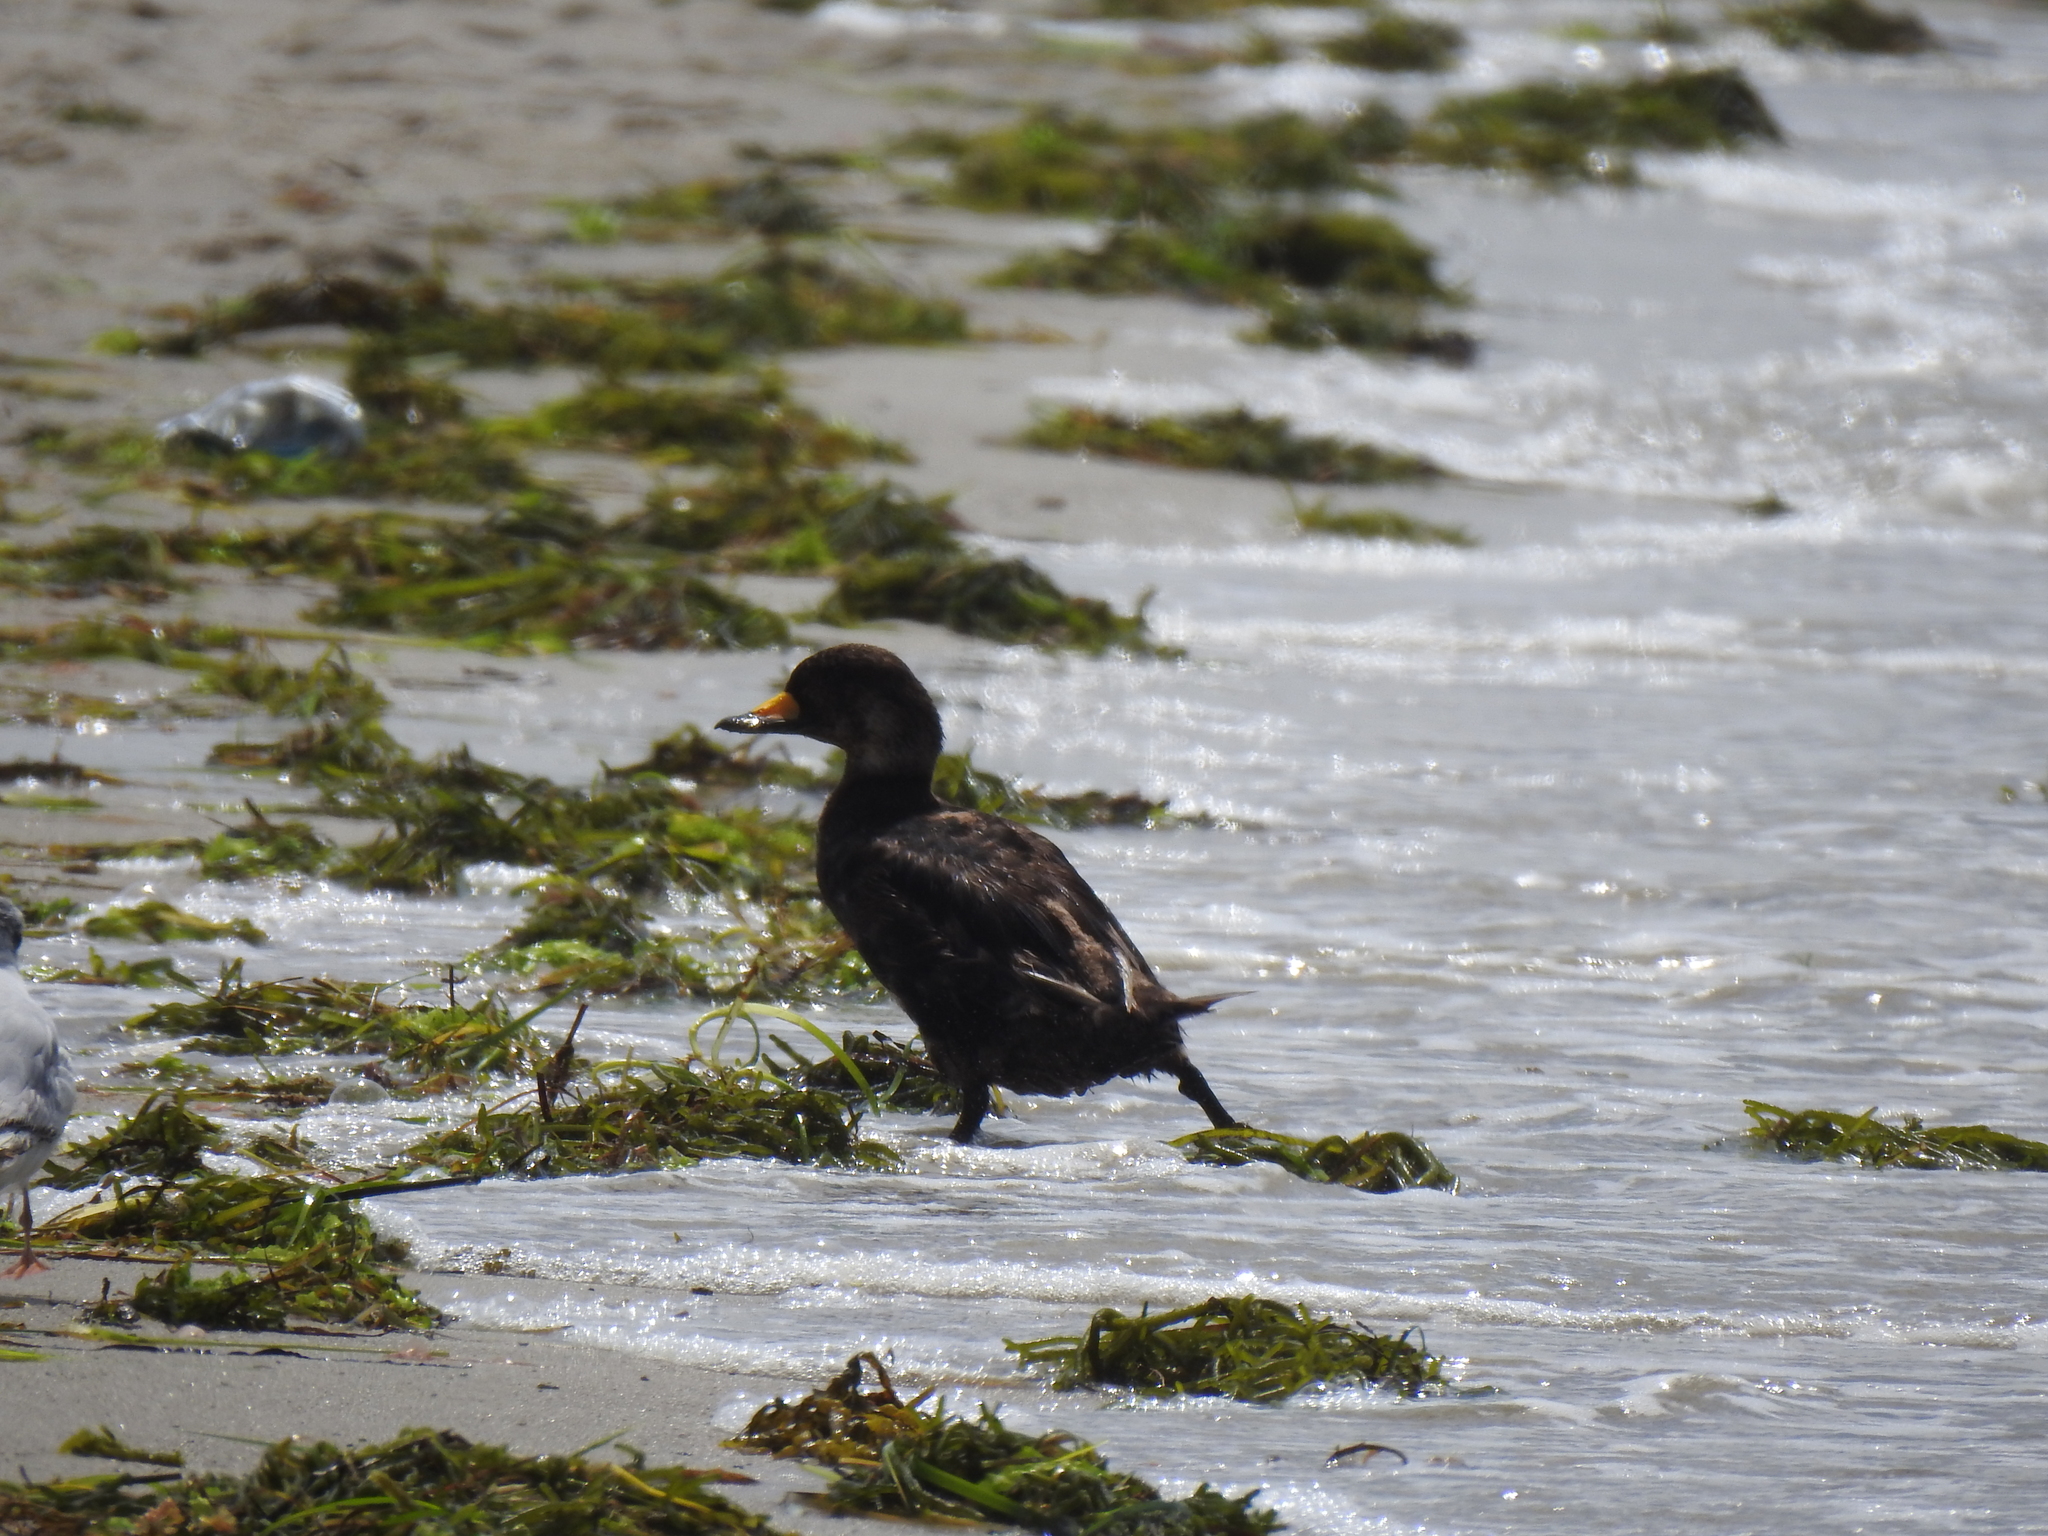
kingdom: Animalia
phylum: Chordata
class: Aves
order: Anseriformes
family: Anatidae
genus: Melanitta
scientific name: Melanitta americana
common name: Black scoter
